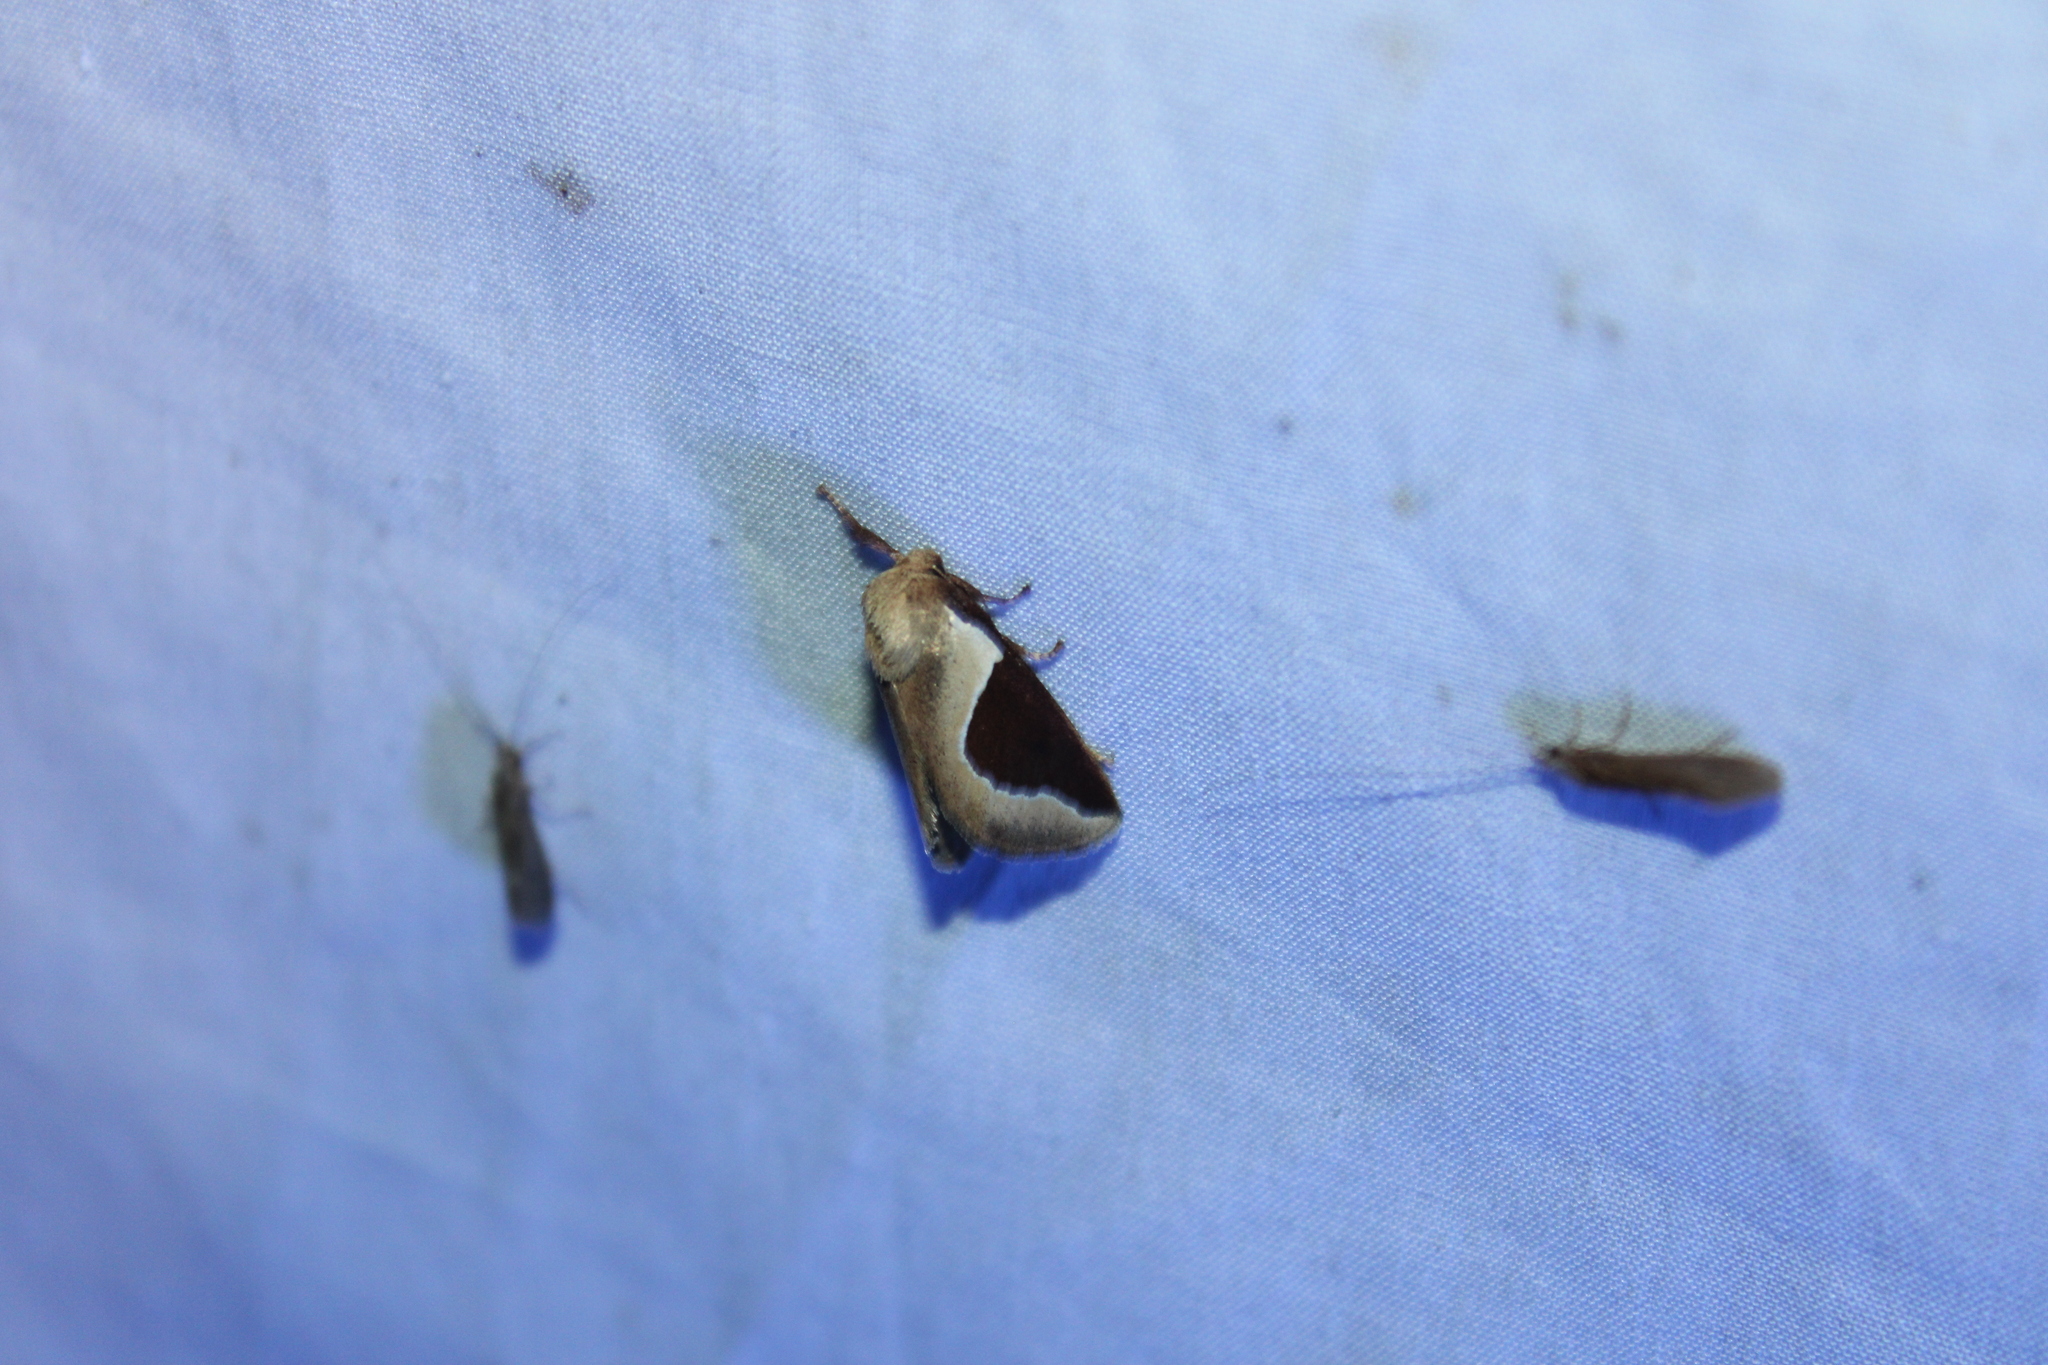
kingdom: Animalia
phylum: Arthropoda
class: Insecta
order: Lepidoptera
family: Limacodidae
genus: Prolimacodes
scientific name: Prolimacodes badia
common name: Skiff moth
